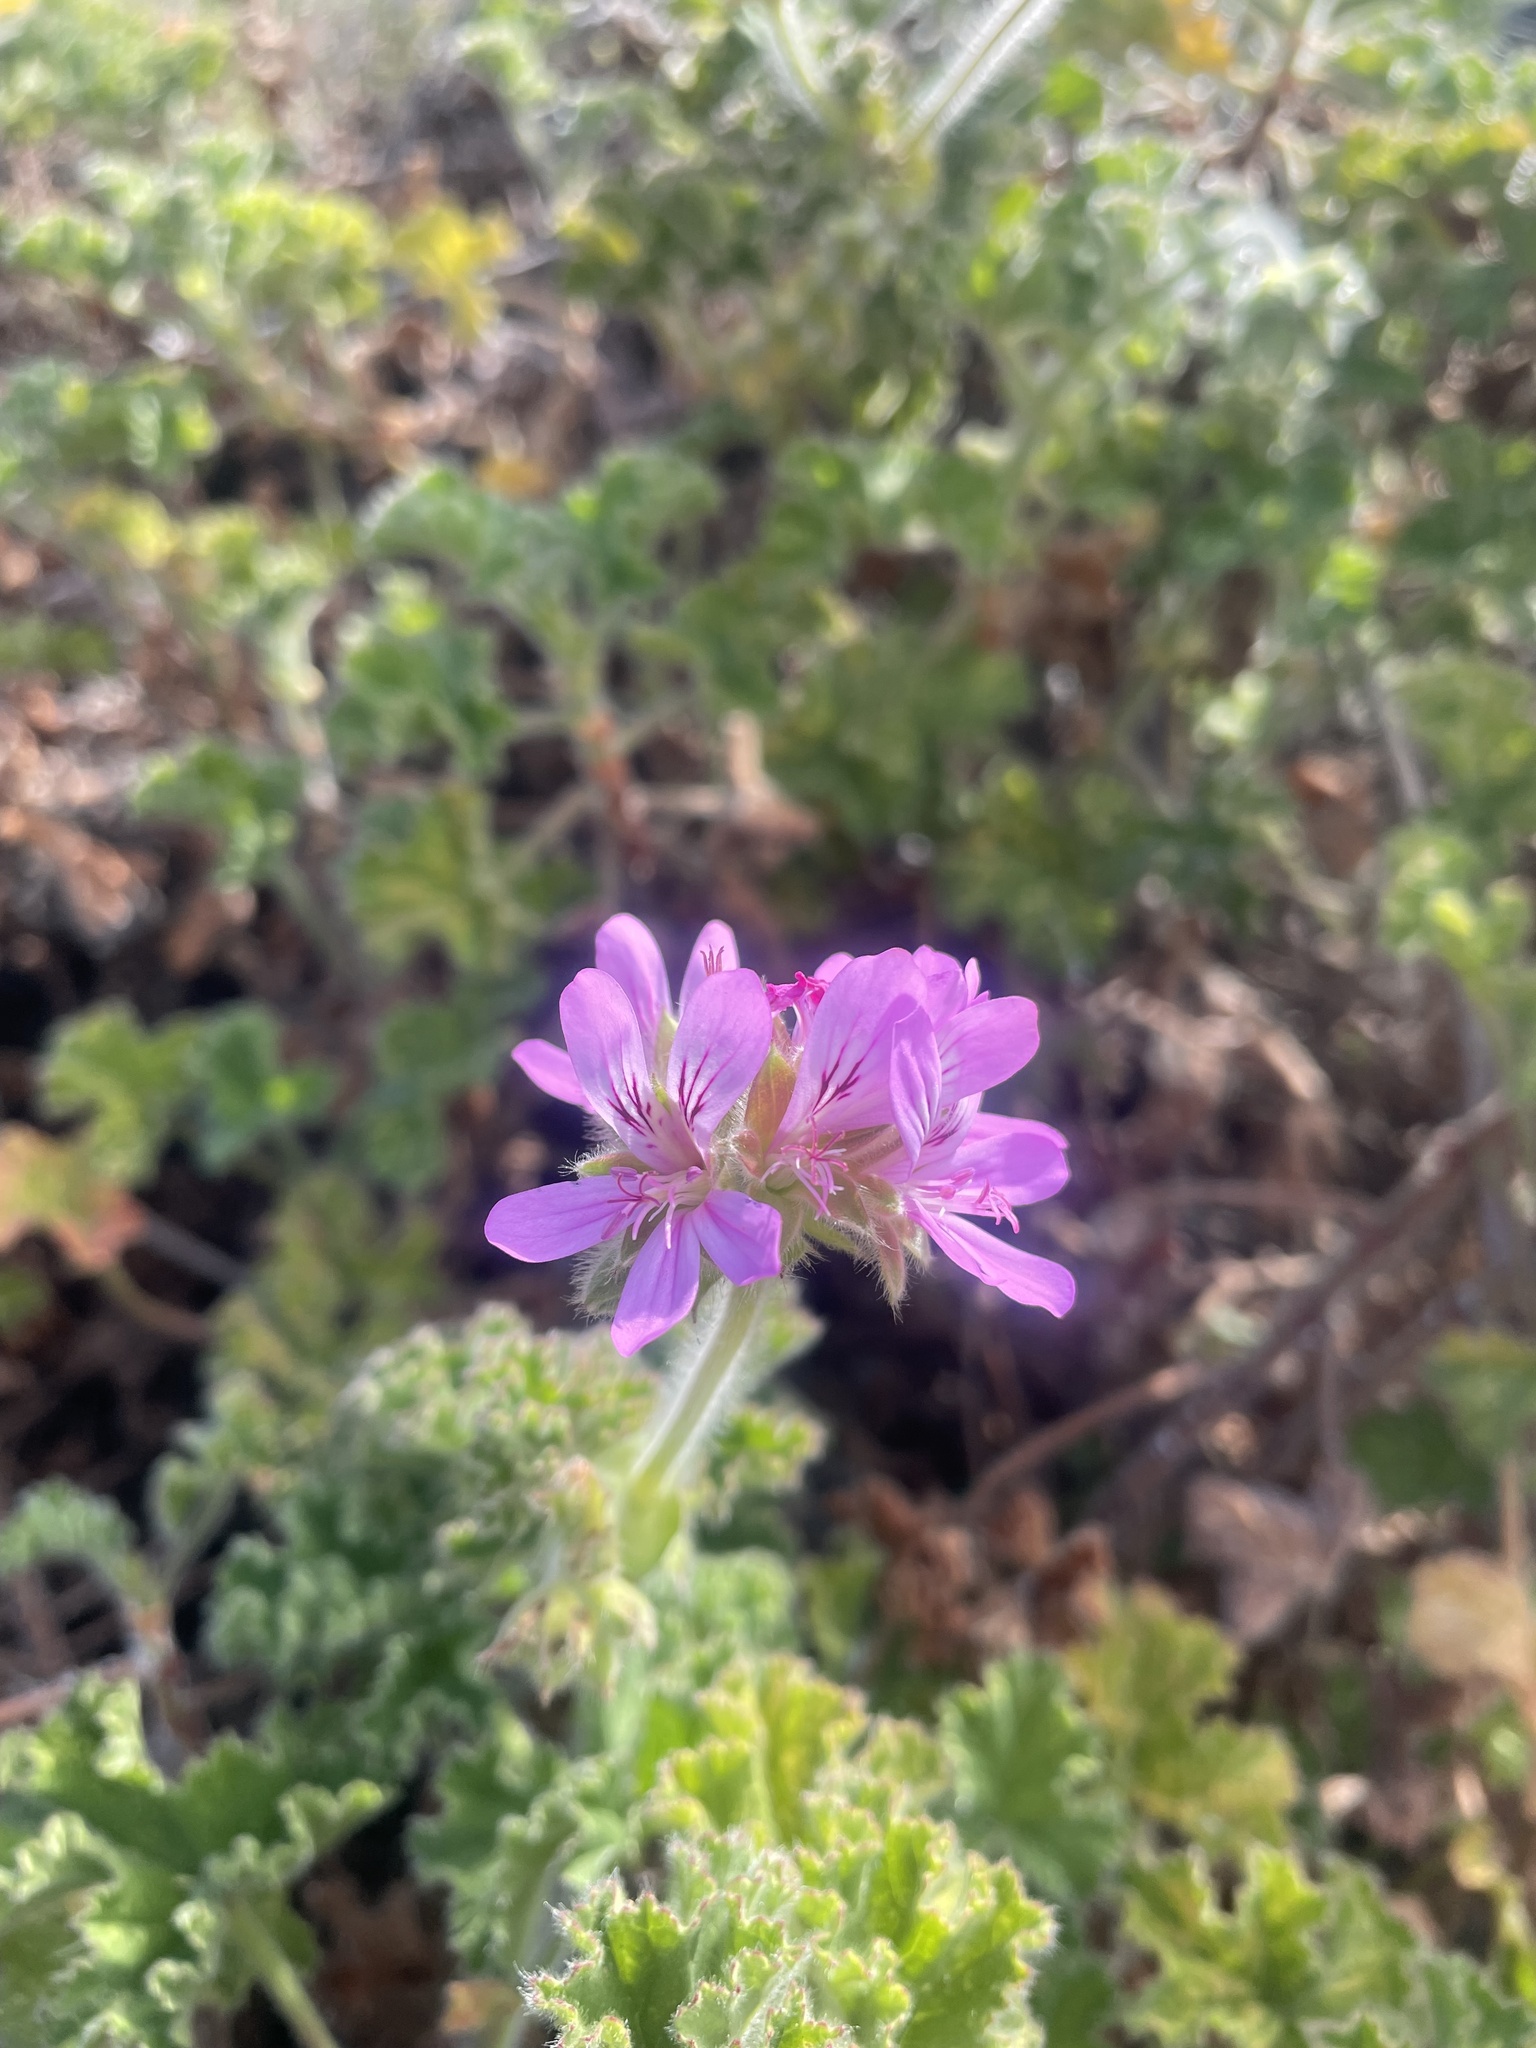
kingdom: Plantae
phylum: Tracheophyta
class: Magnoliopsida
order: Geraniales
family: Geraniaceae
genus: Pelargonium
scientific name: Pelargonium capitatum
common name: Rose scented geranium
